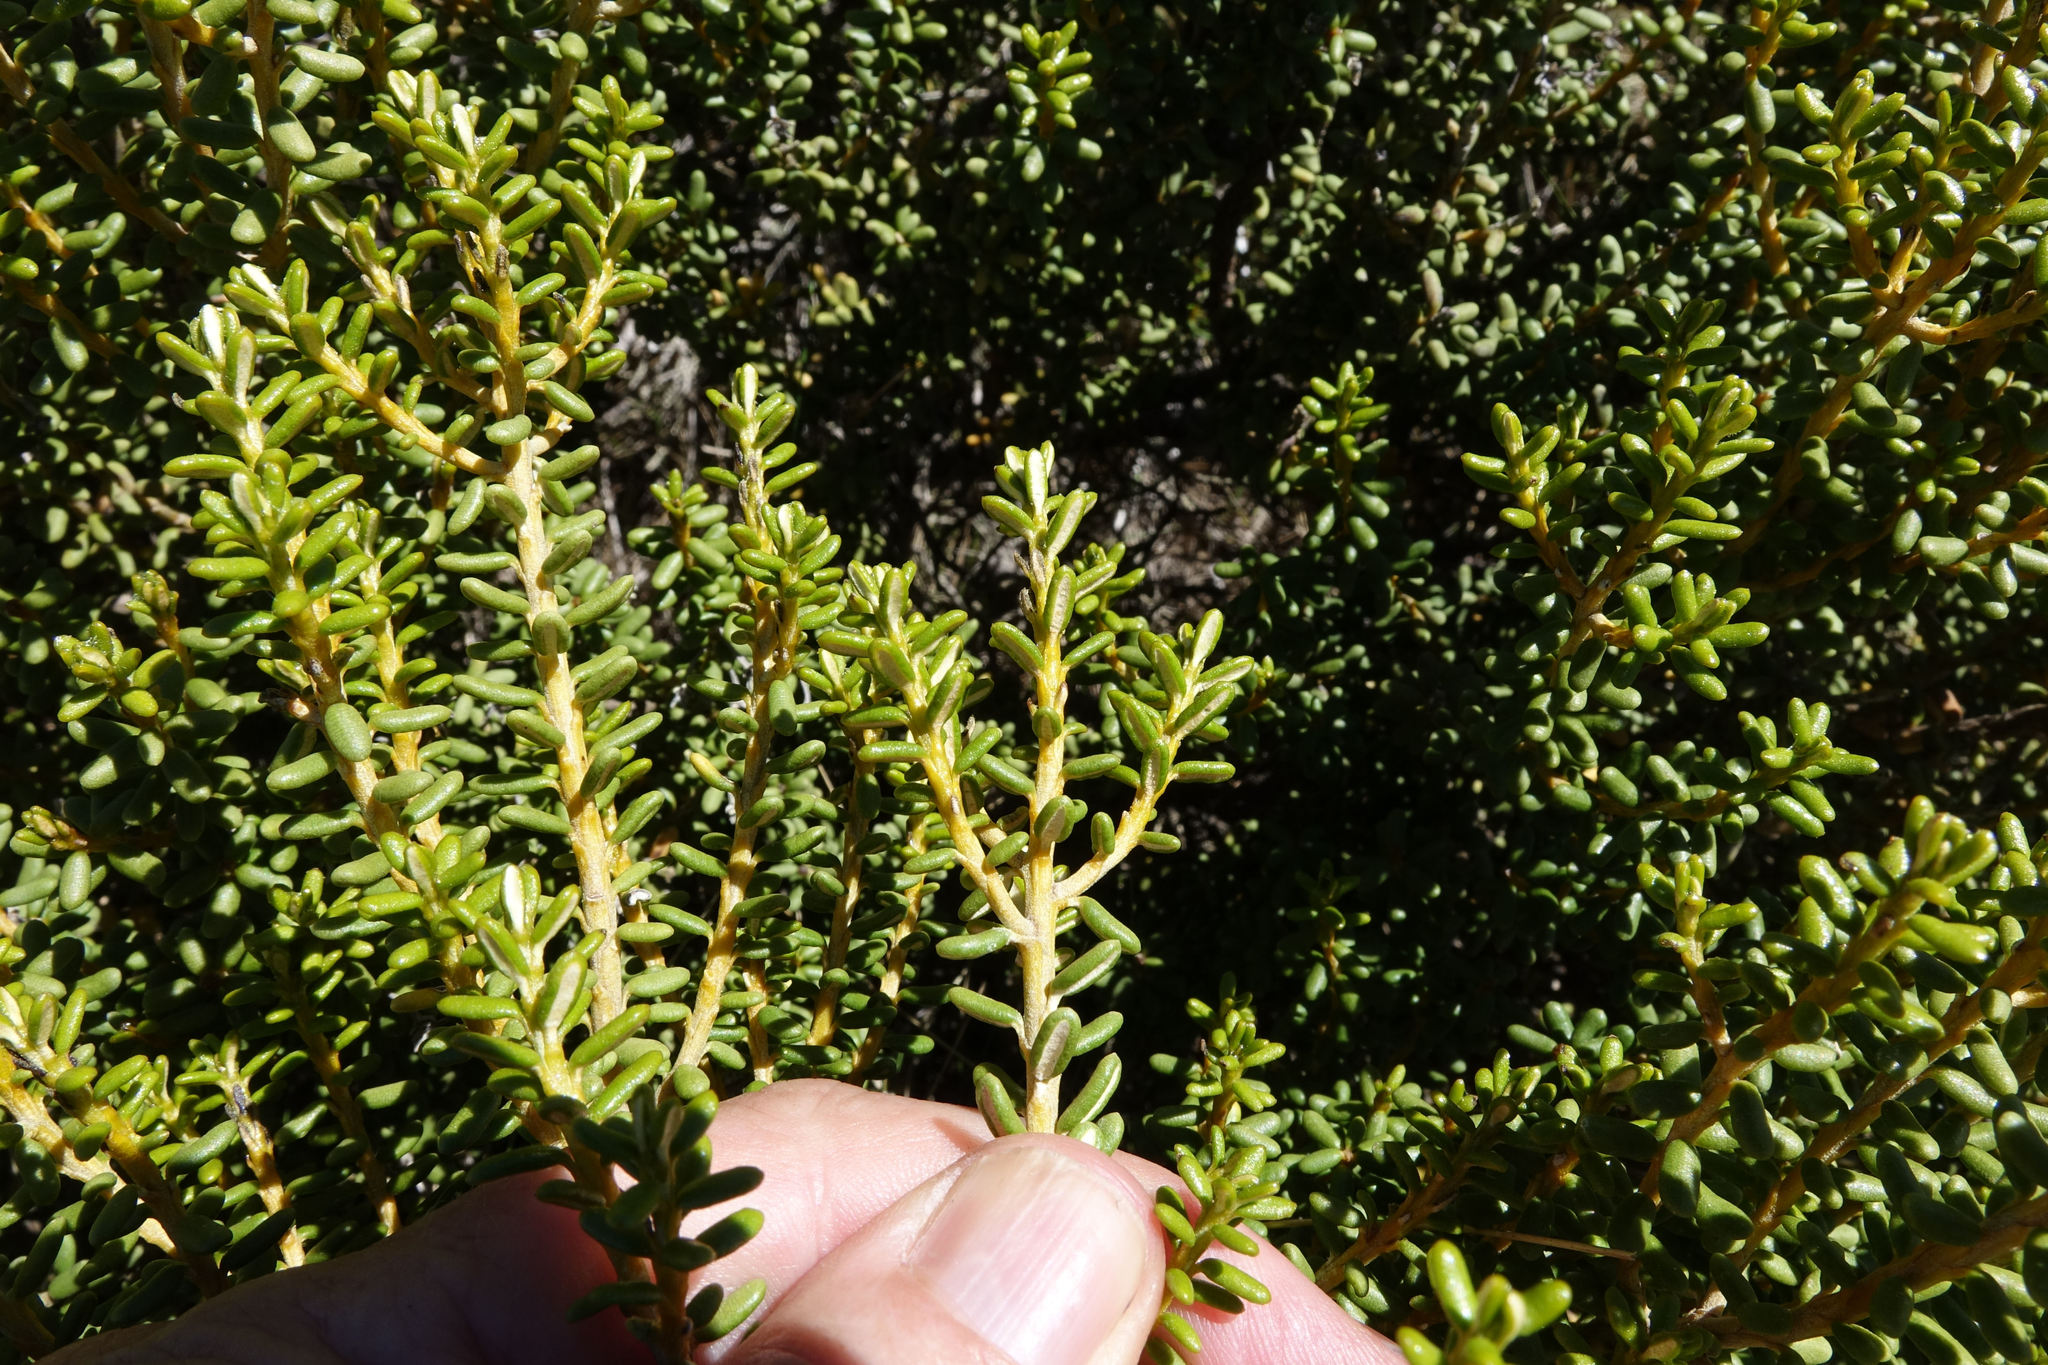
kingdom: Plantae
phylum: Tracheophyta
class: Magnoliopsida
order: Asterales
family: Asteraceae
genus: Olearia
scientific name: Olearia cymbifolia
